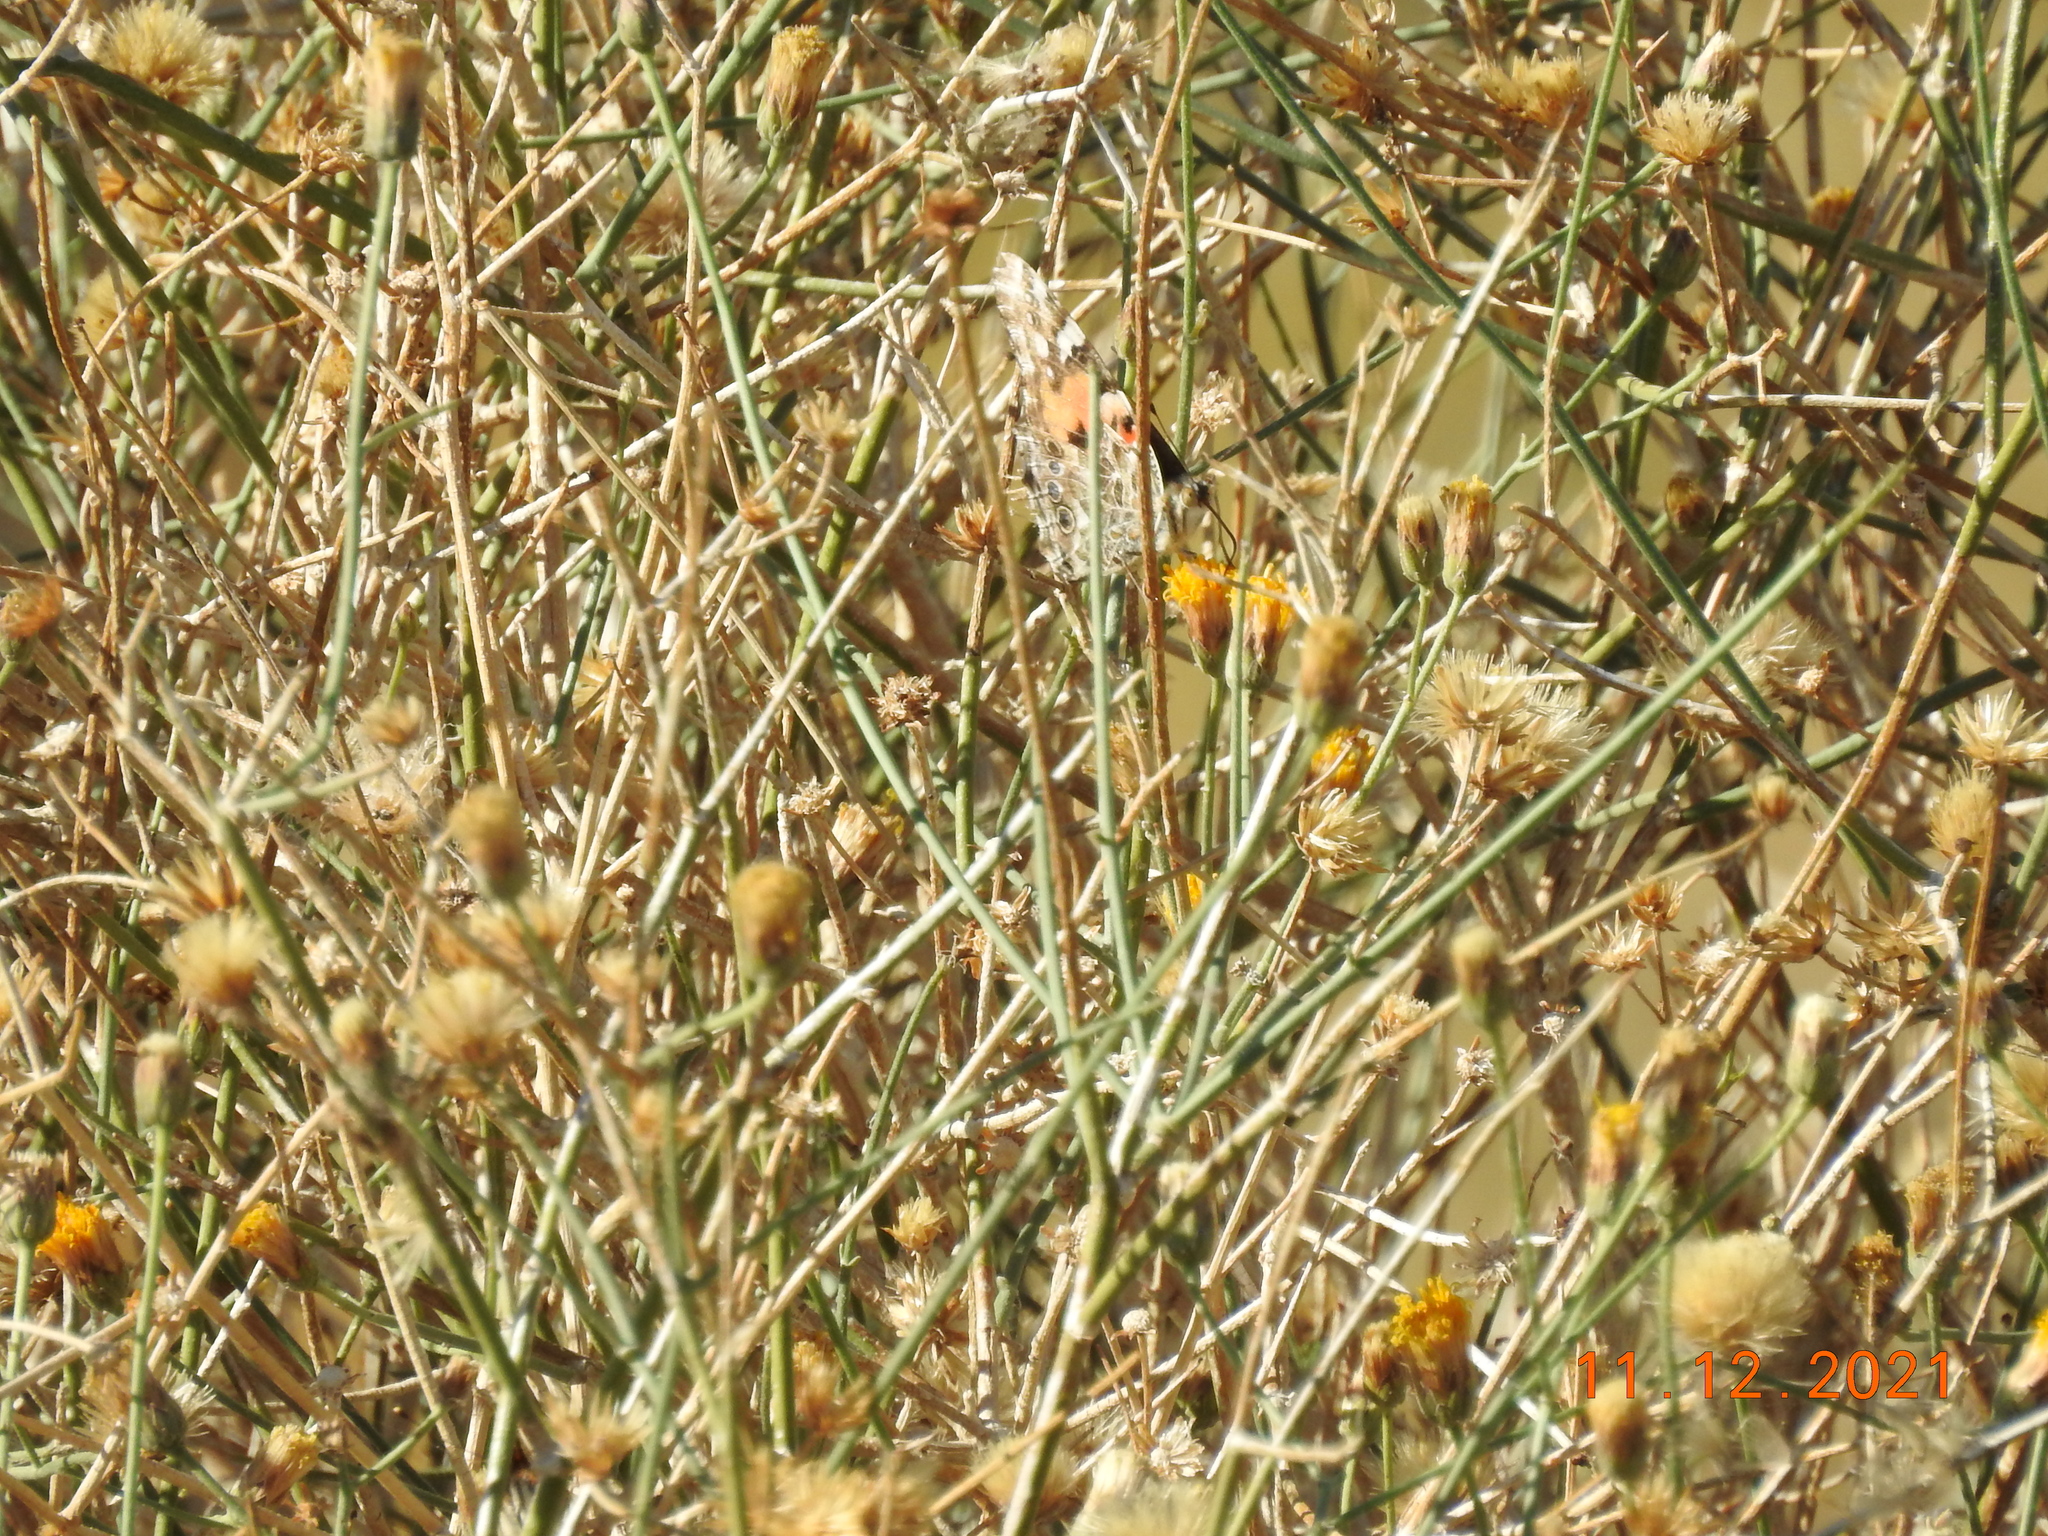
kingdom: Plantae
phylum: Tracheophyta
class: Magnoliopsida
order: Asterales
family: Asteraceae
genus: Bebbia
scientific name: Bebbia juncea
